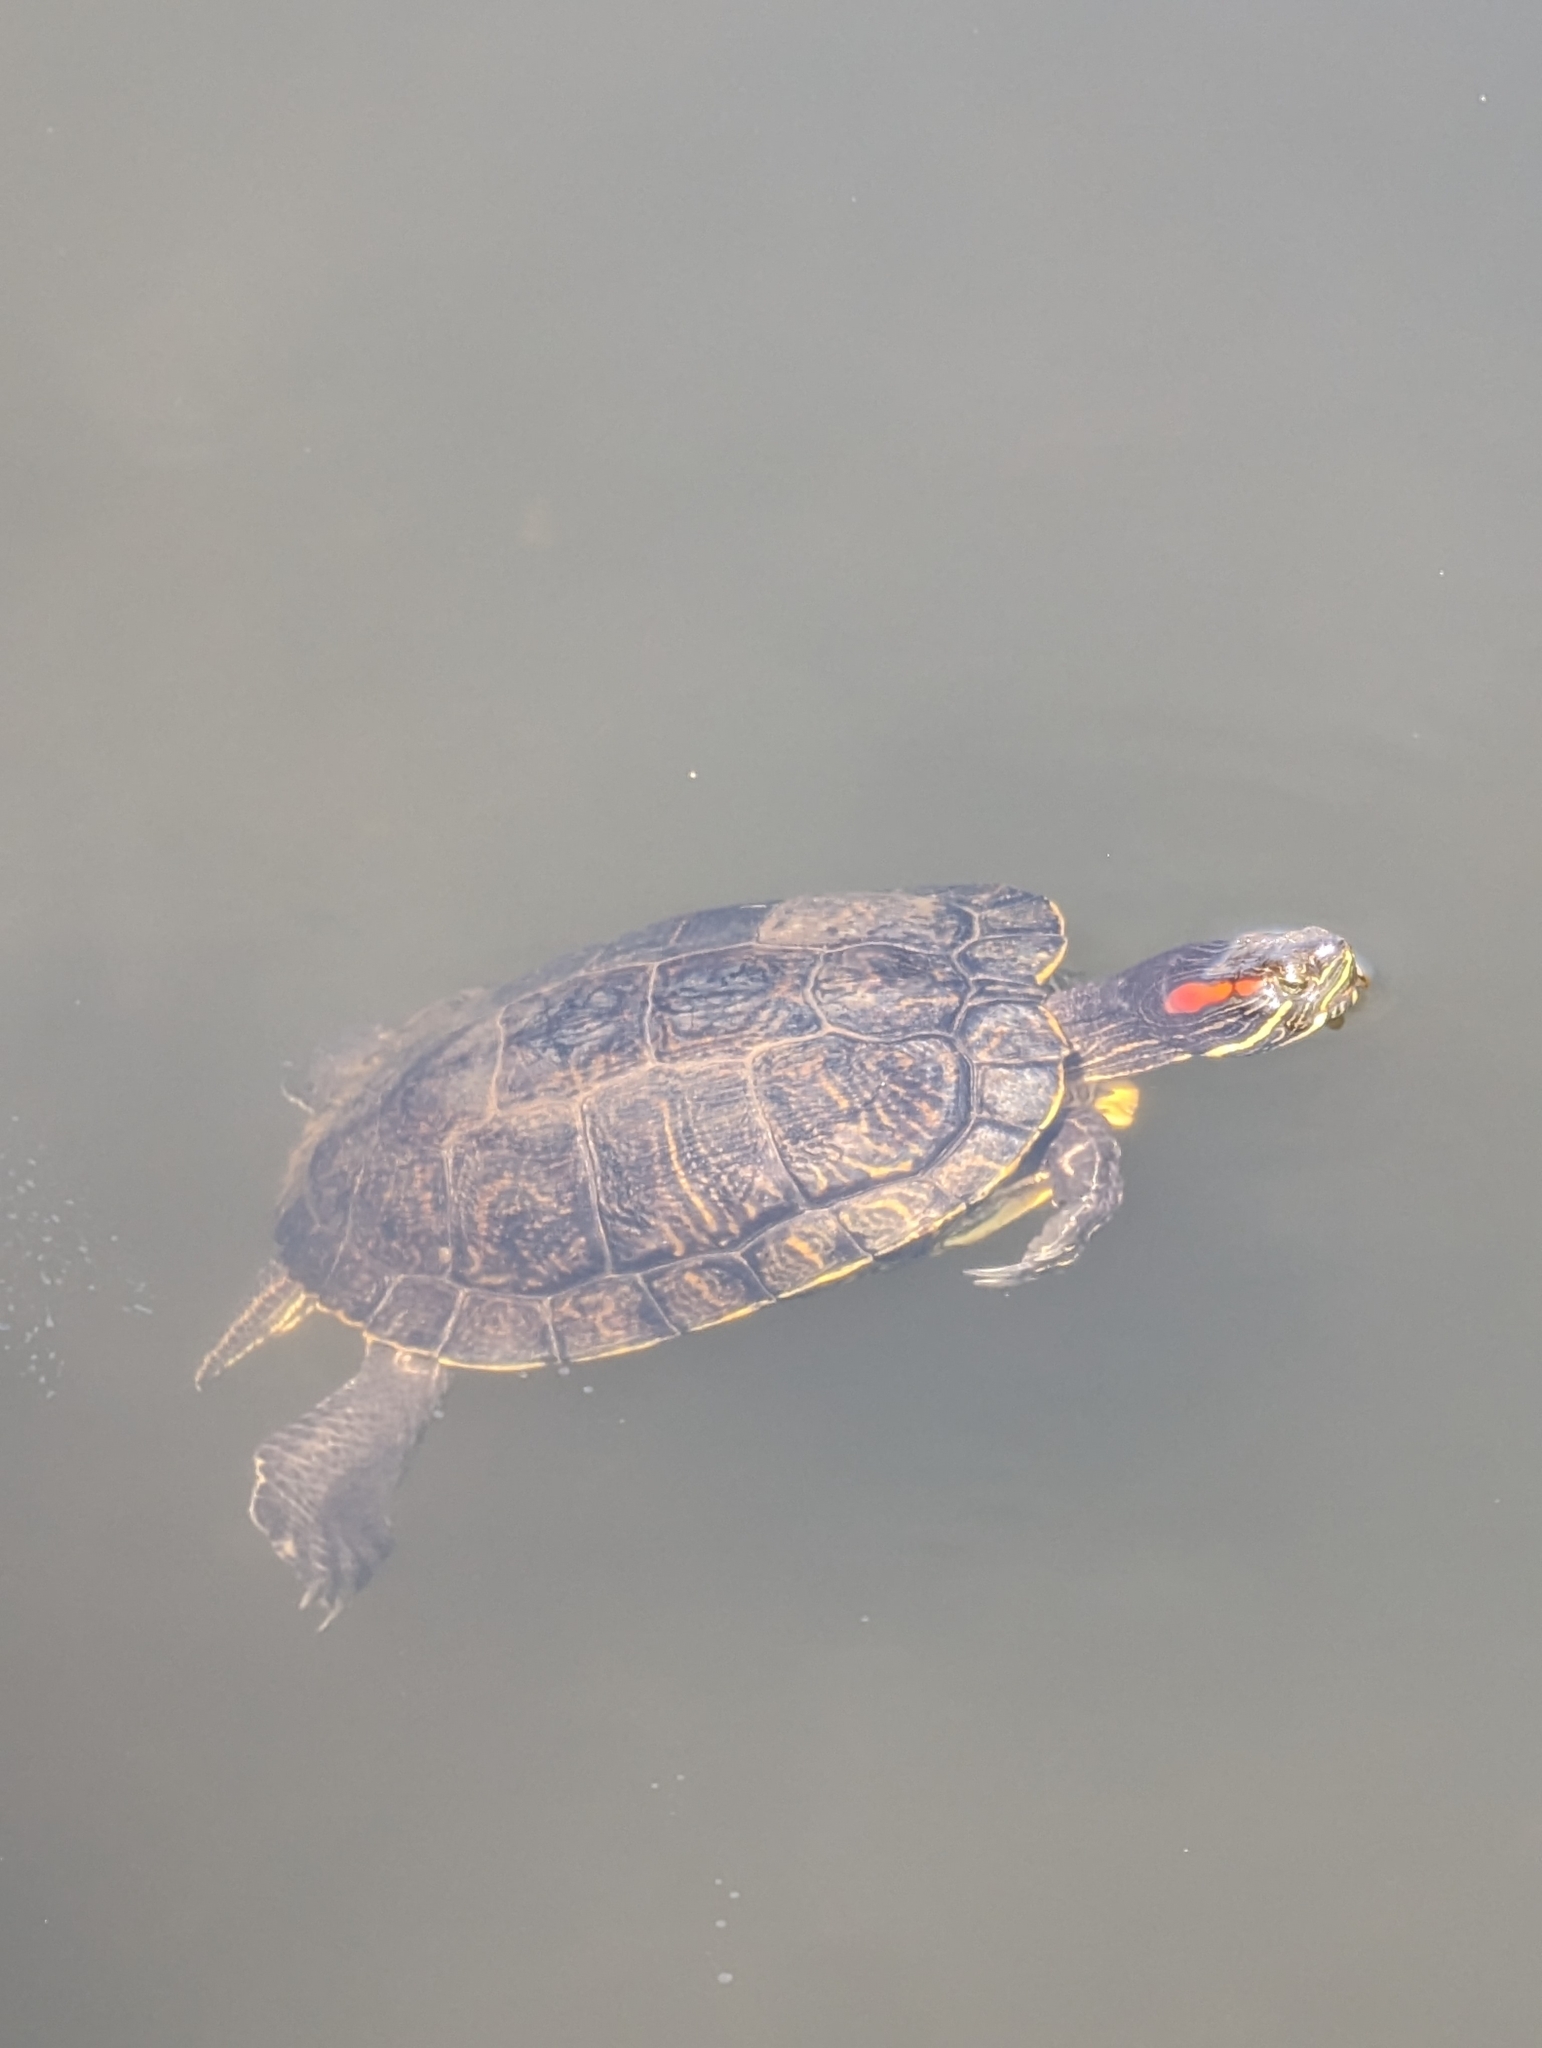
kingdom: Animalia
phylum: Chordata
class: Testudines
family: Emydidae
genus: Trachemys
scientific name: Trachemys scripta
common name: Slider
